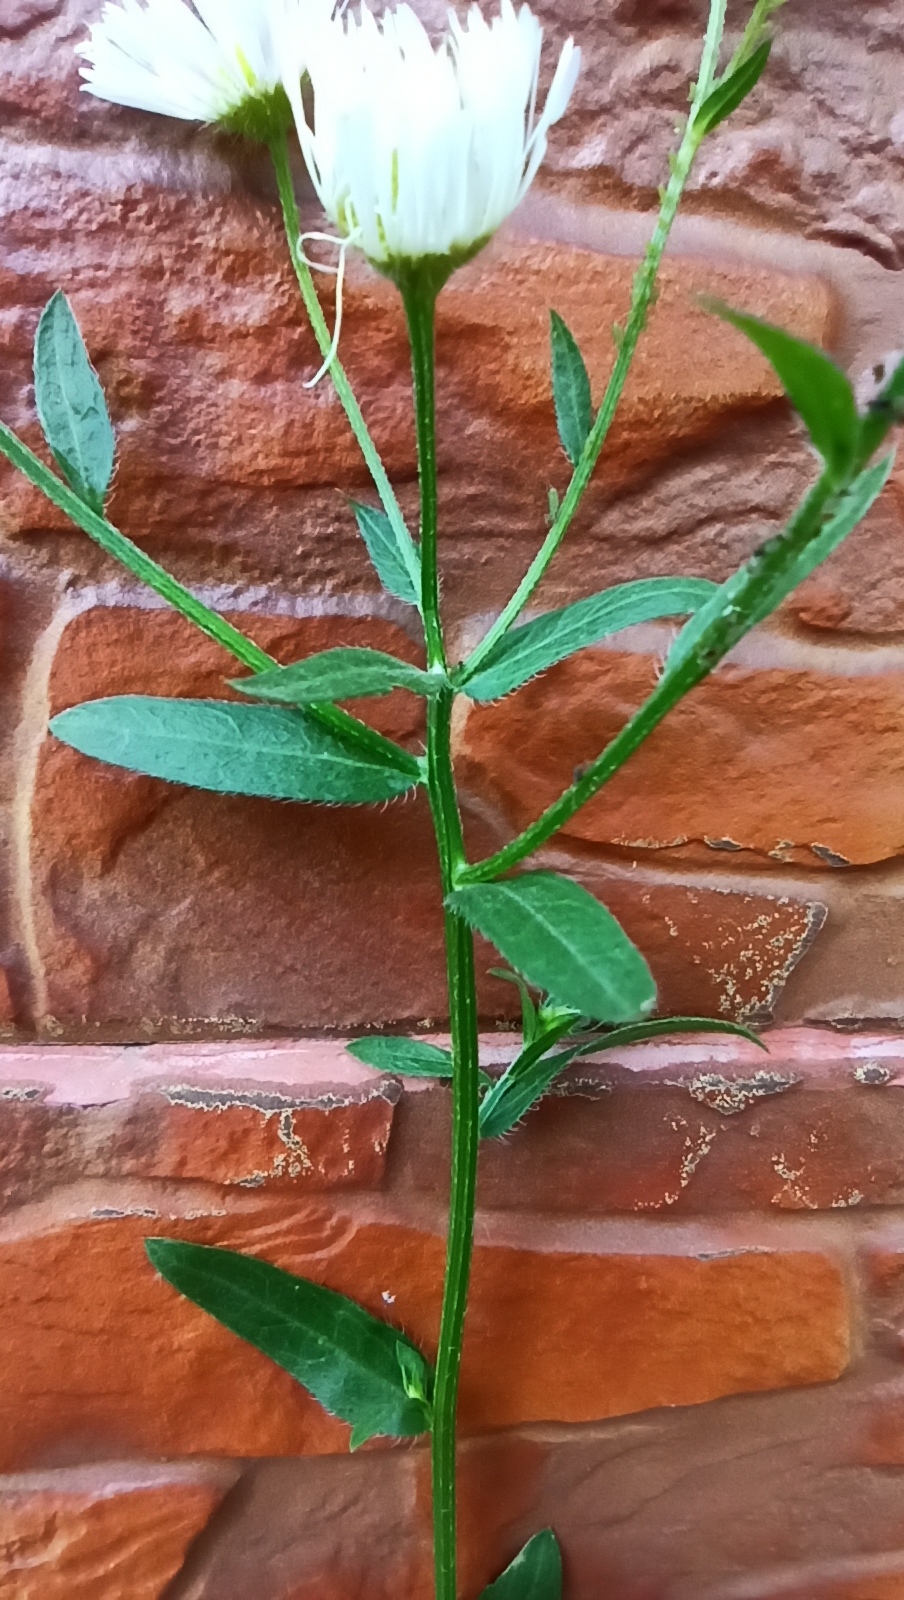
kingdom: Plantae
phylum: Tracheophyta
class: Magnoliopsida
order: Asterales
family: Asteraceae
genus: Erigeron
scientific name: Erigeron strigosus
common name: Common eastern fleabane
